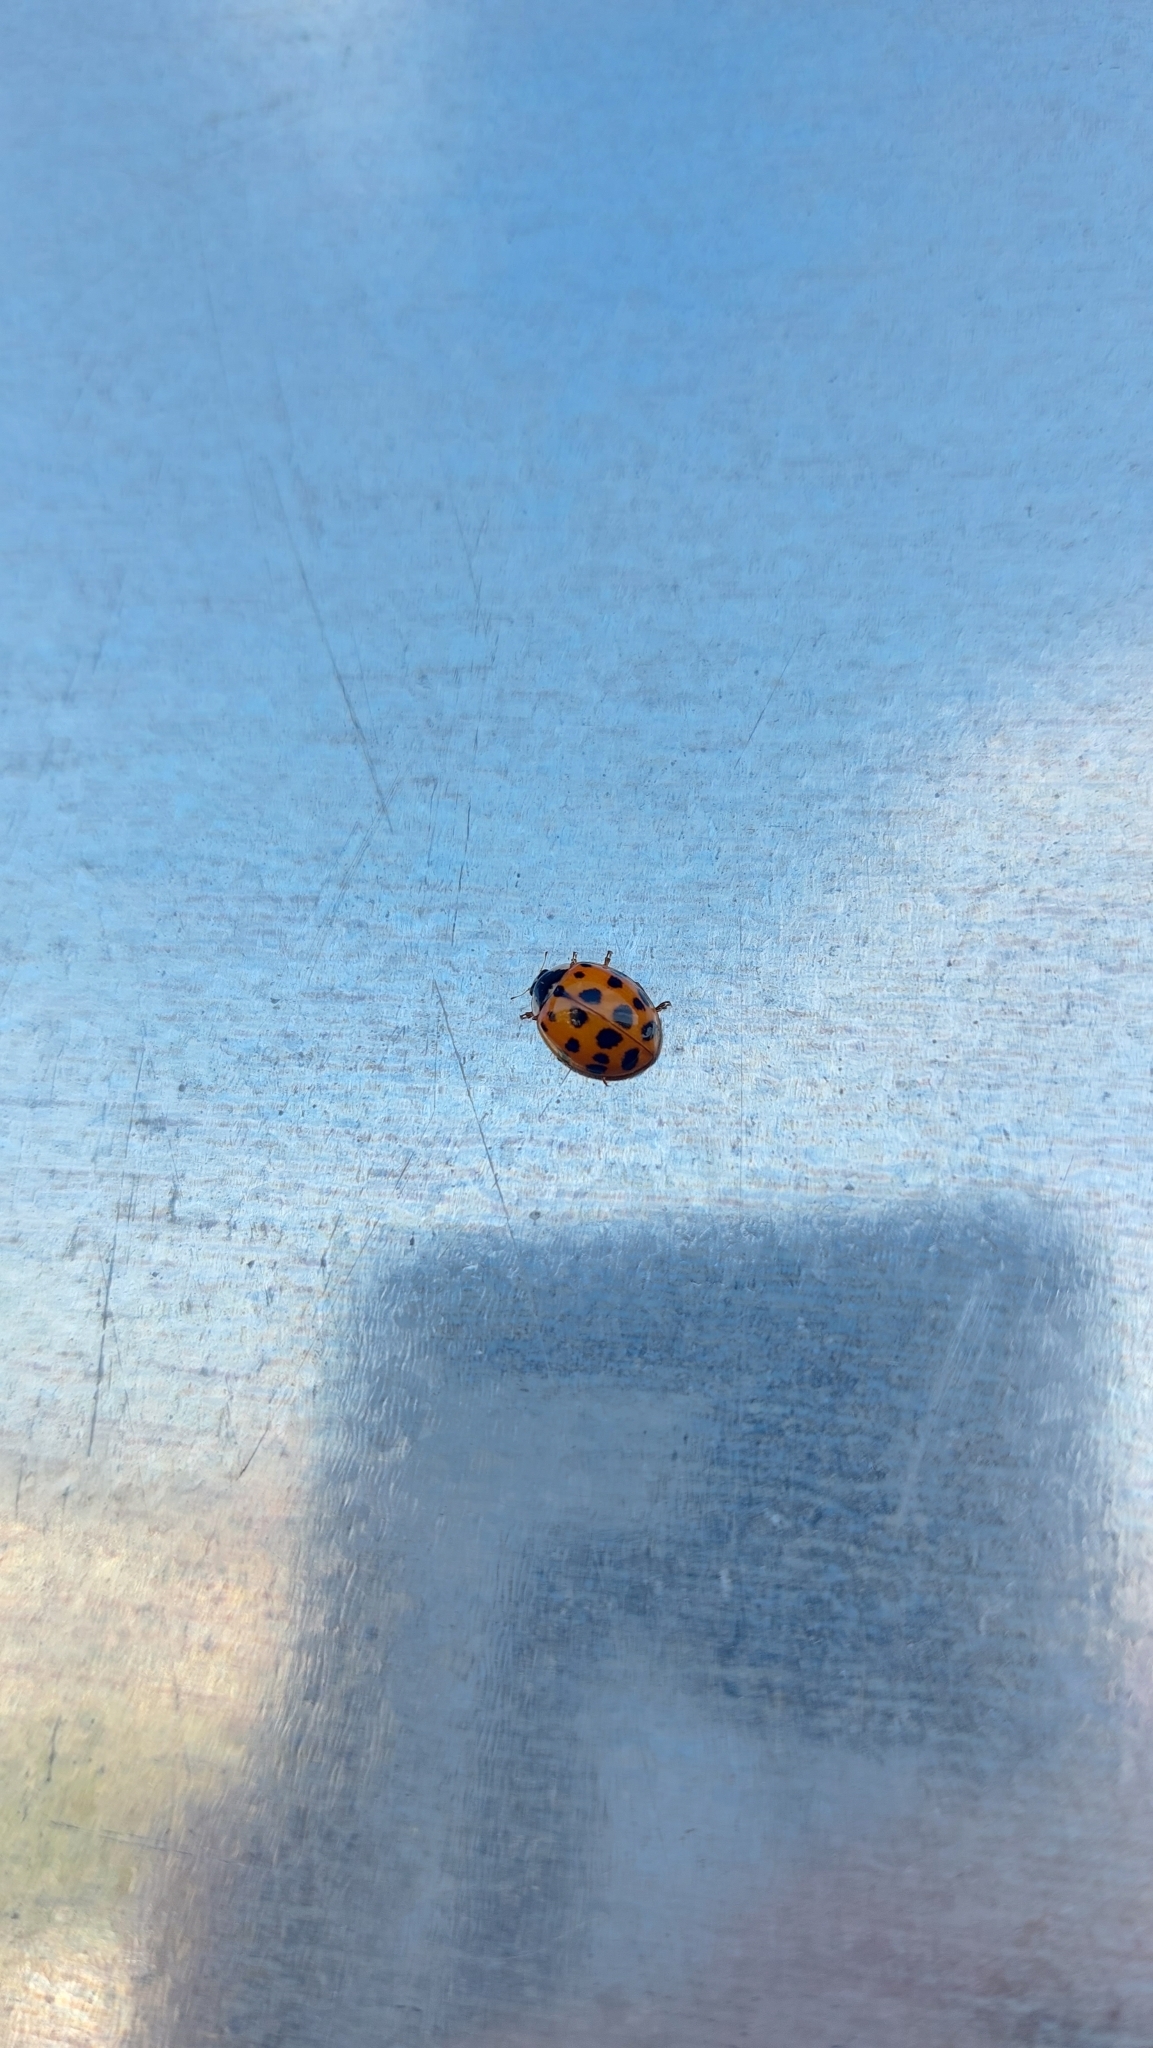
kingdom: Animalia
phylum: Arthropoda
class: Insecta
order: Coleoptera
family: Coccinellidae
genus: Harmonia
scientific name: Harmonia axyridis
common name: Harlequin ladybird
